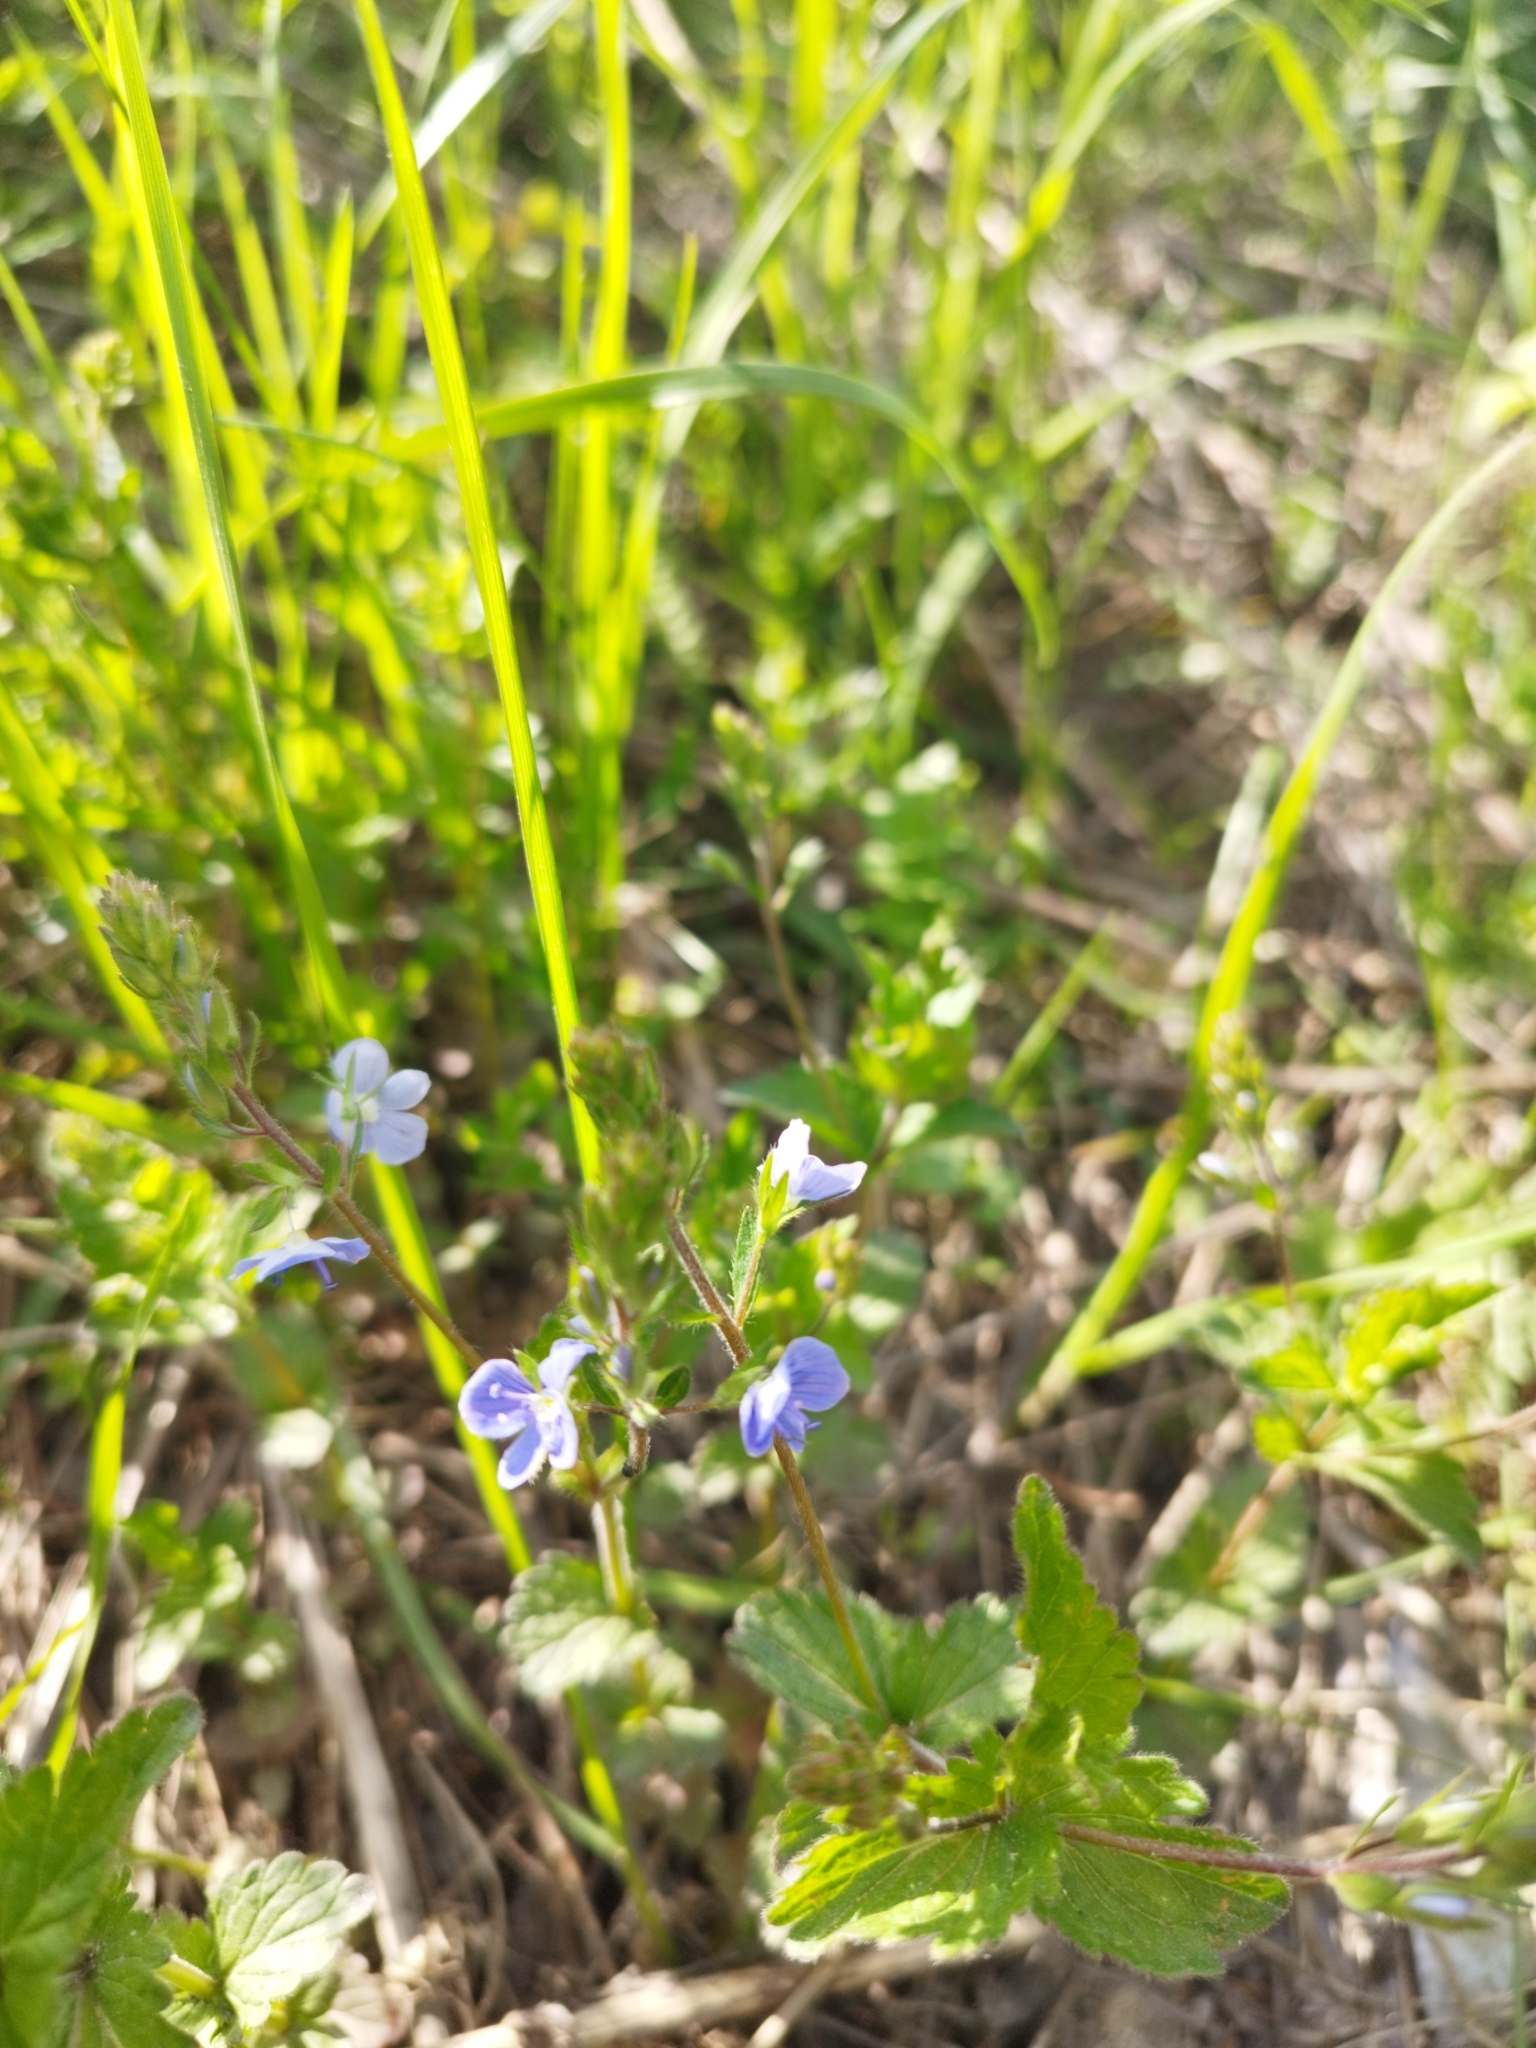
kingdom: Plantae
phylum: Tracheophyta
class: Magnoliopsida
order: Lamiales
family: Plantaginaceae
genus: Veronica
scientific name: Veronica chamaedrys
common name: Germander speedwell
